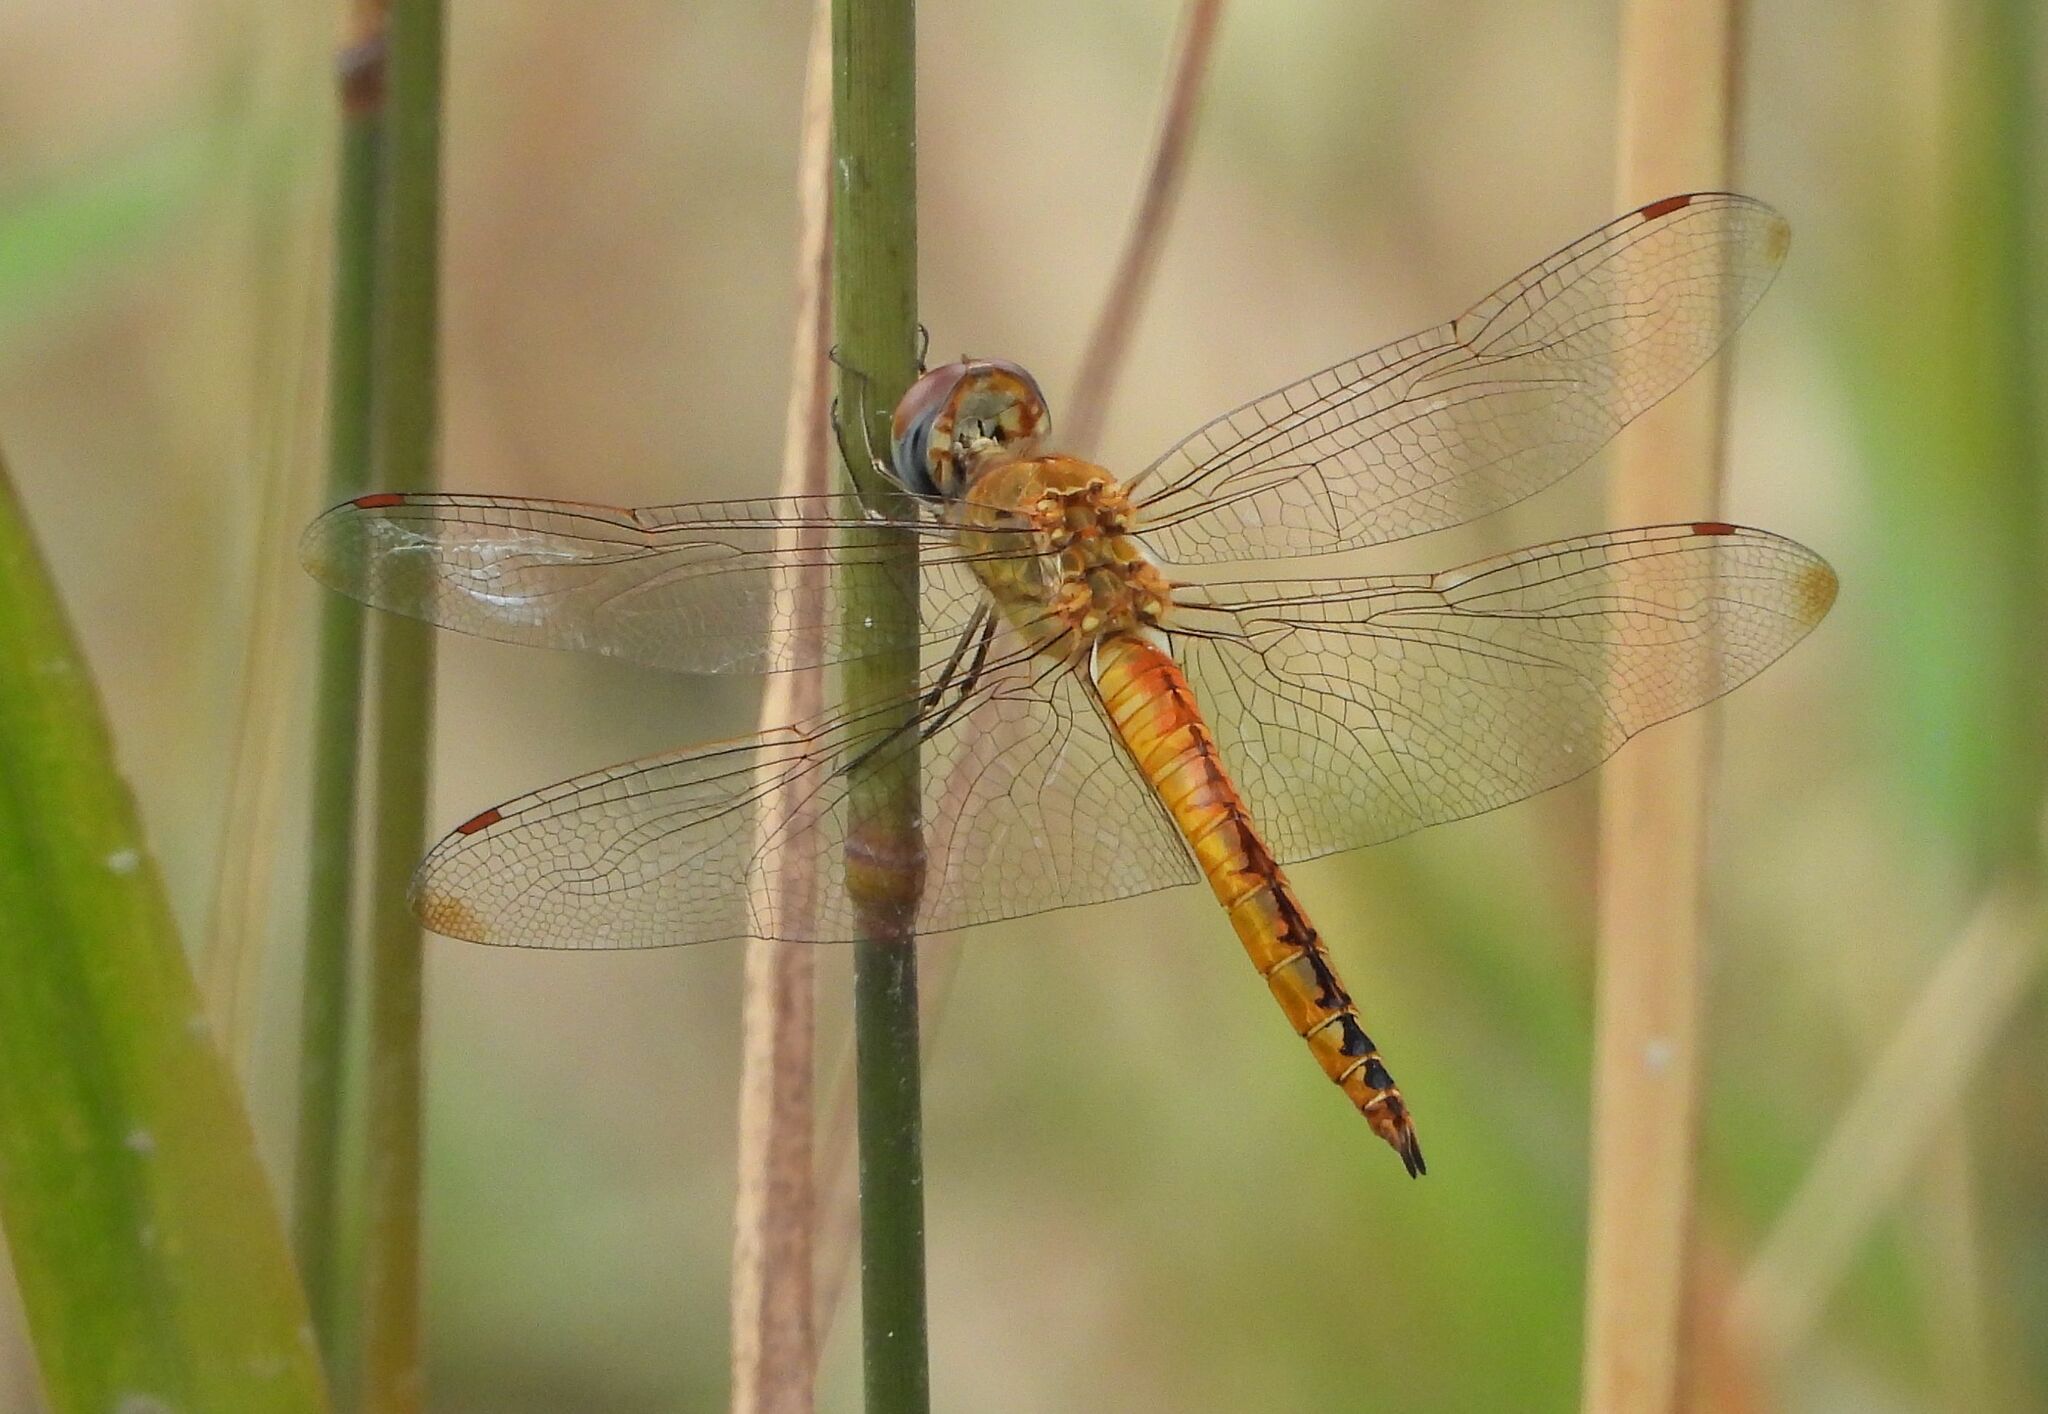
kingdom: Animalia
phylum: Arthropoda
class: Insecta
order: Odonata
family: Libellulidae
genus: Pantala
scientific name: Pantala flavescens
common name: Wandering glider
